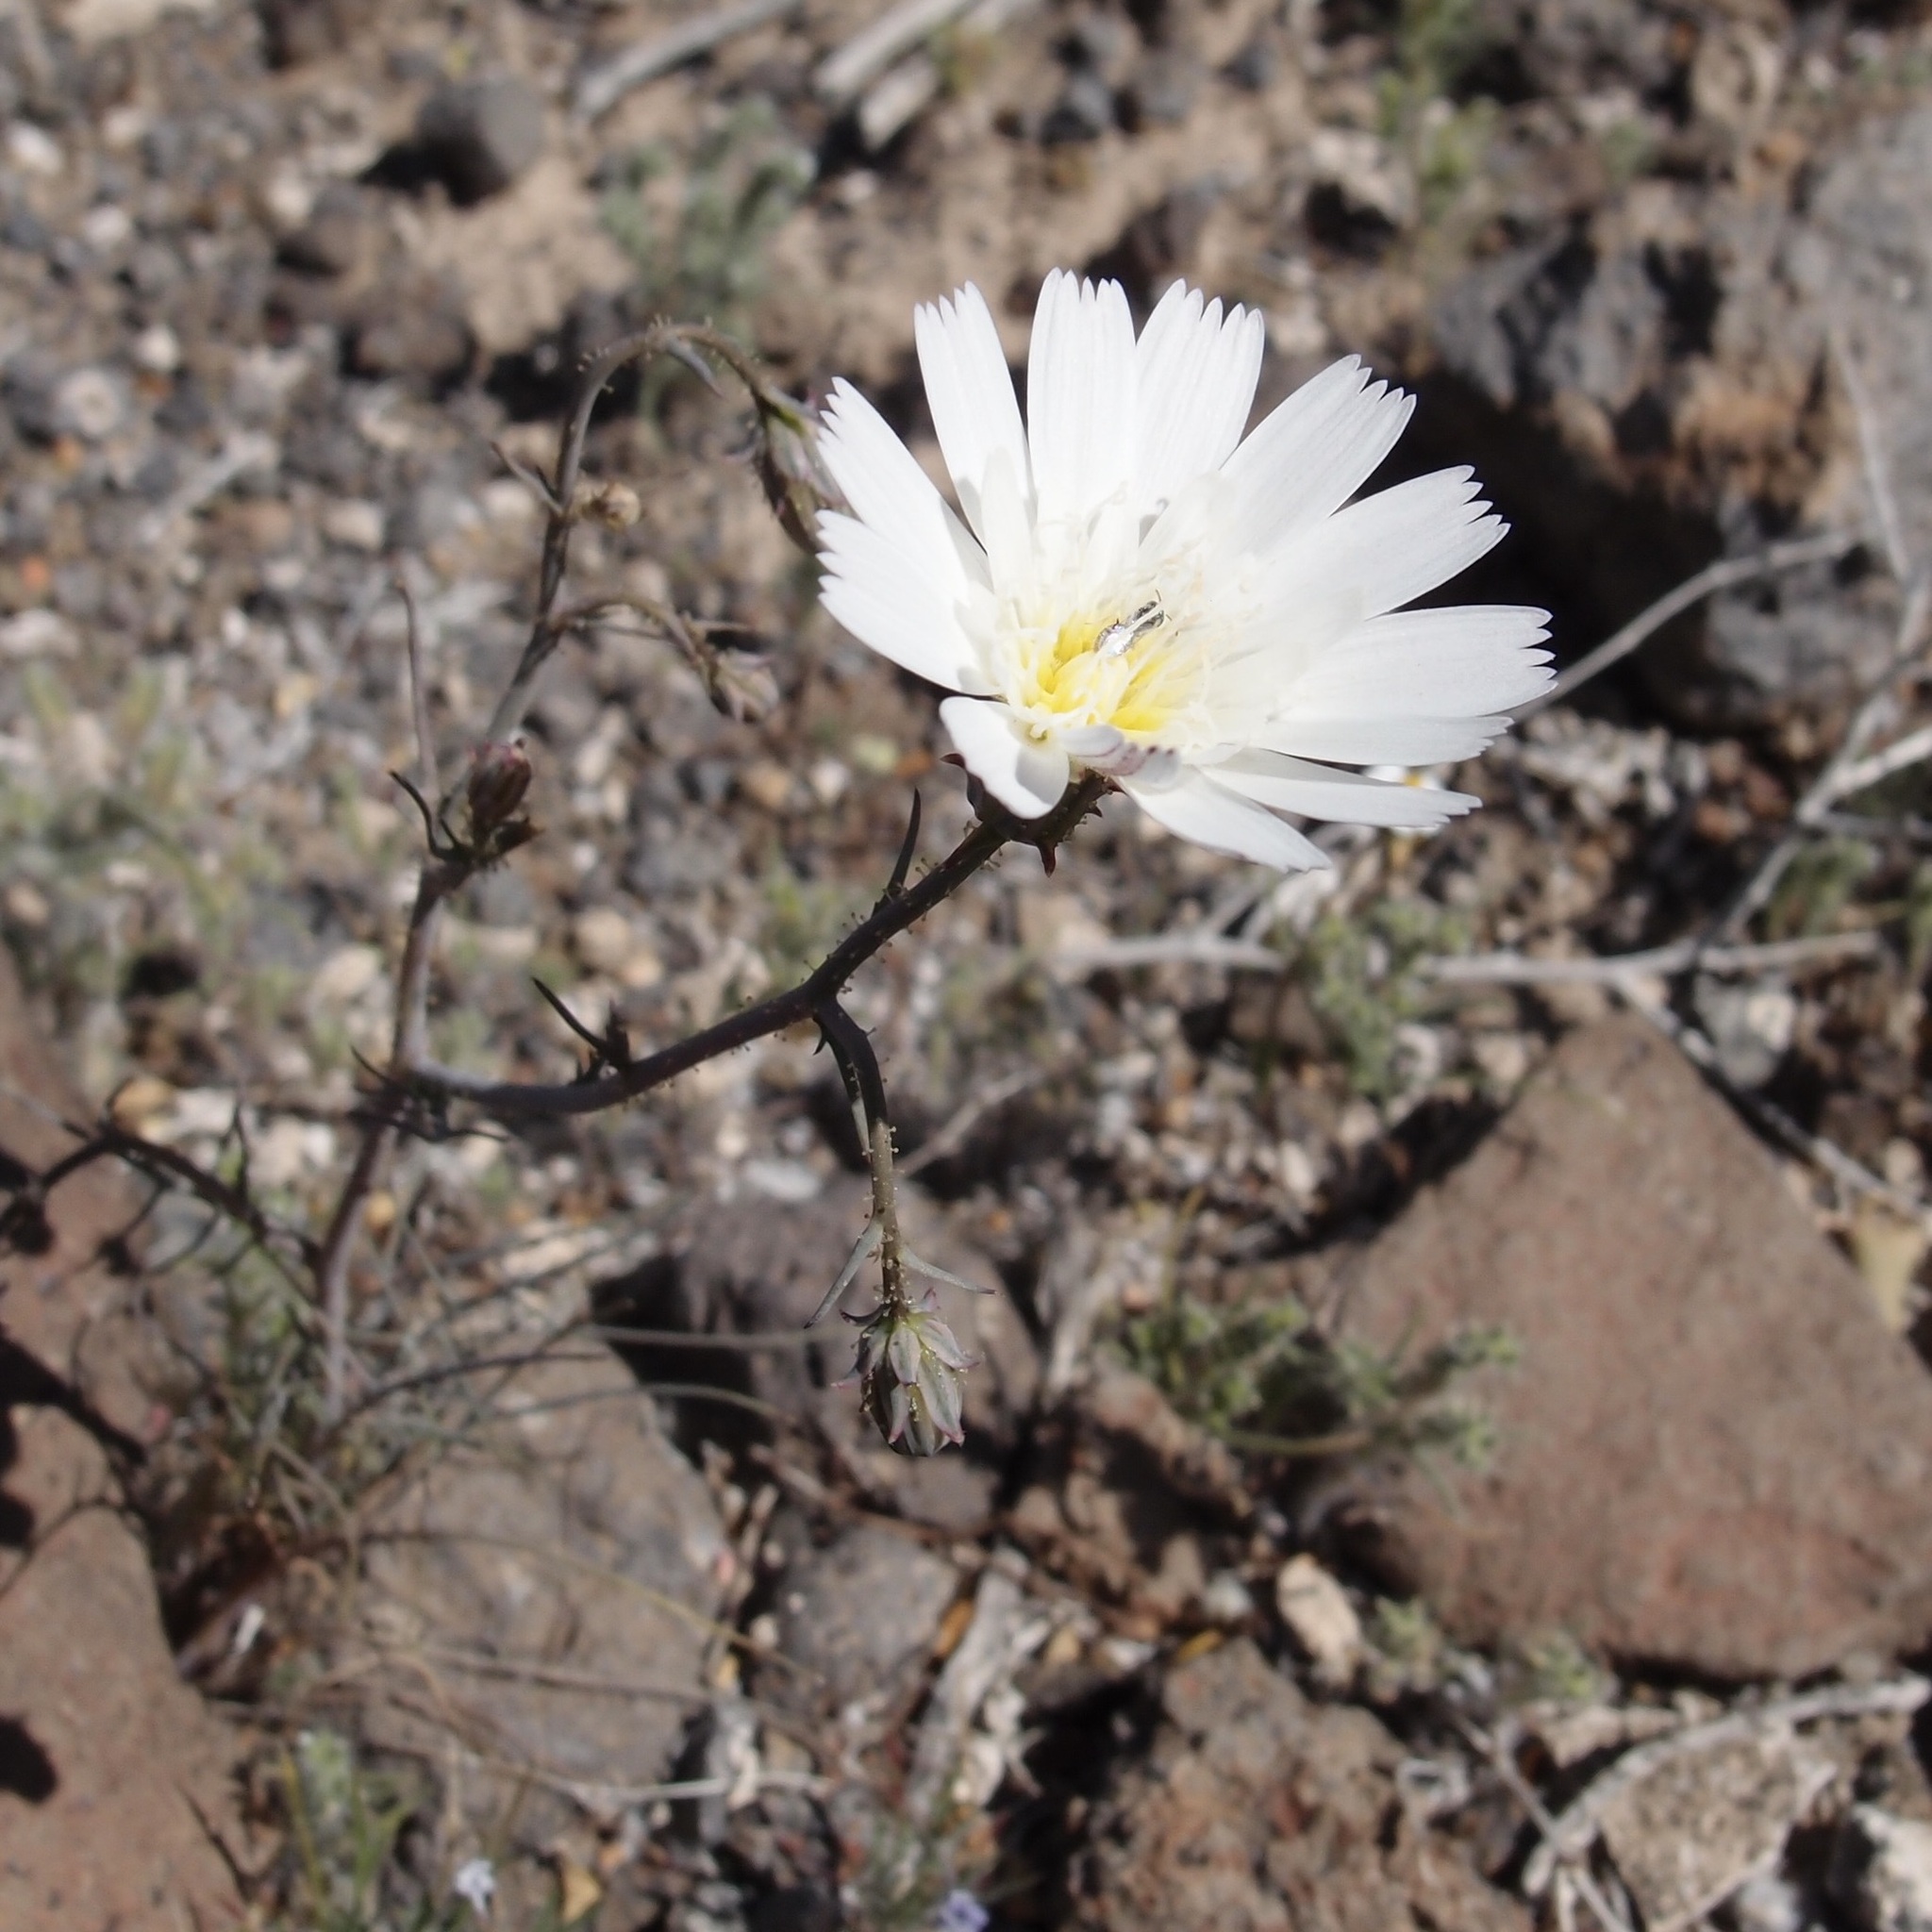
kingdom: Plantae
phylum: Tracheophyta
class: Magnoliopsida
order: Asterales
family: Asteraceae
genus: Calycoseris
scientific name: Calycoseris wrightii
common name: White tackstem
